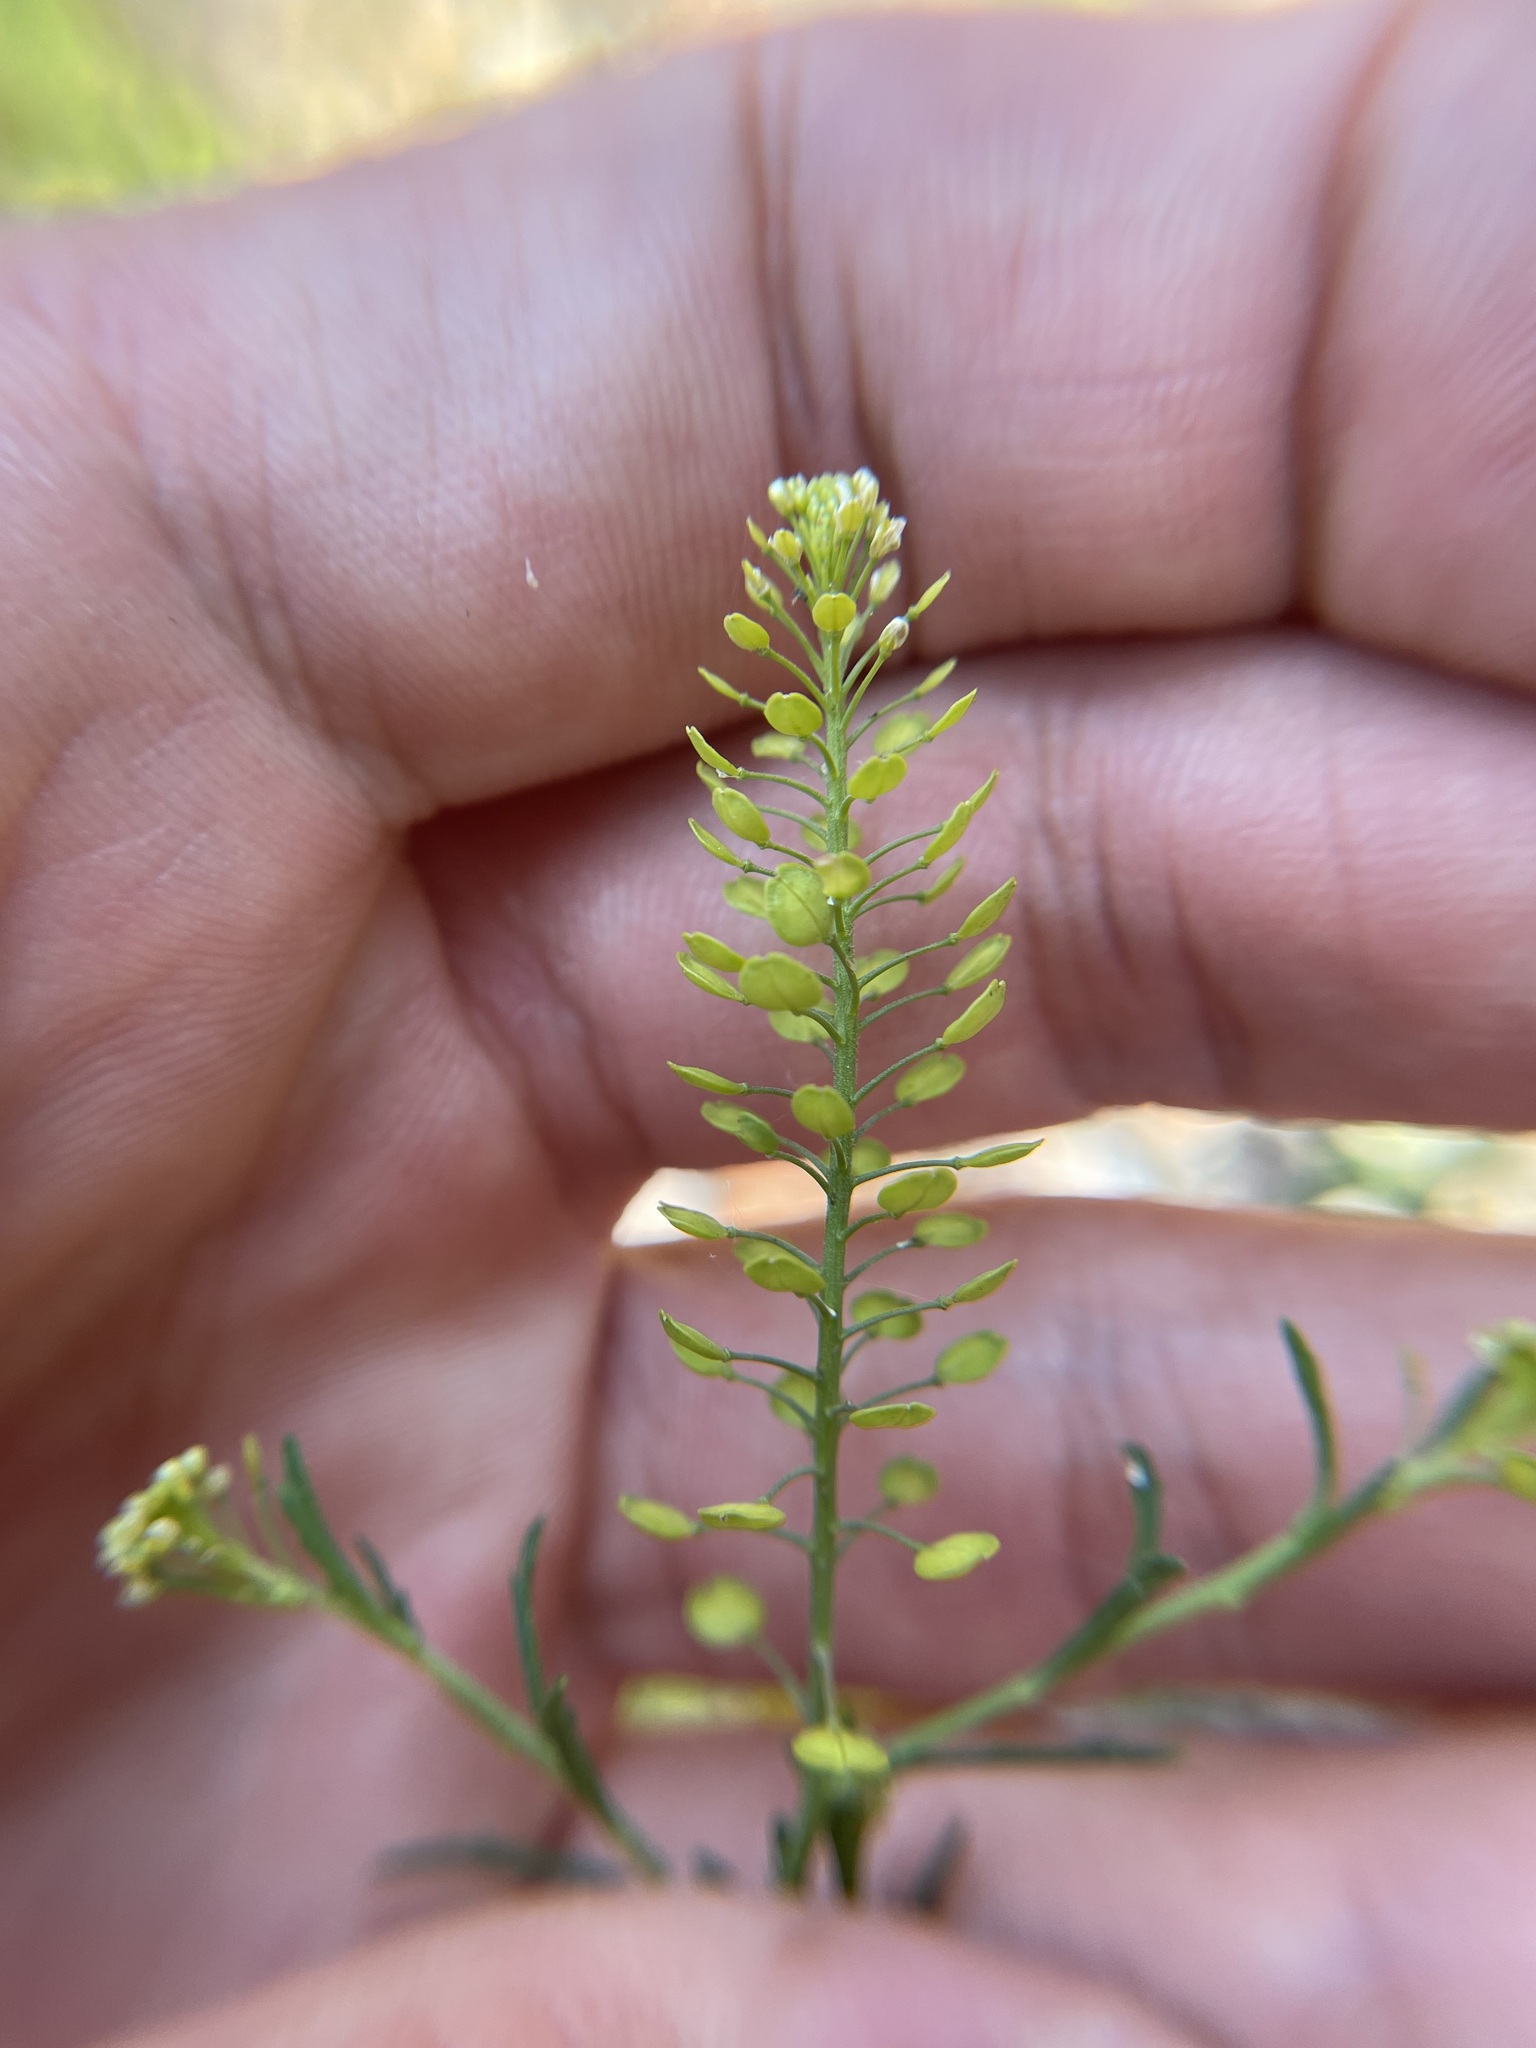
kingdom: Plantae
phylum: Tracheophyta
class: Magnoliopsida
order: Brassicales
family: Brassicaceae
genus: Lepidium
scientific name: Lepidium densiflorum
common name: Miner's pepperwort
